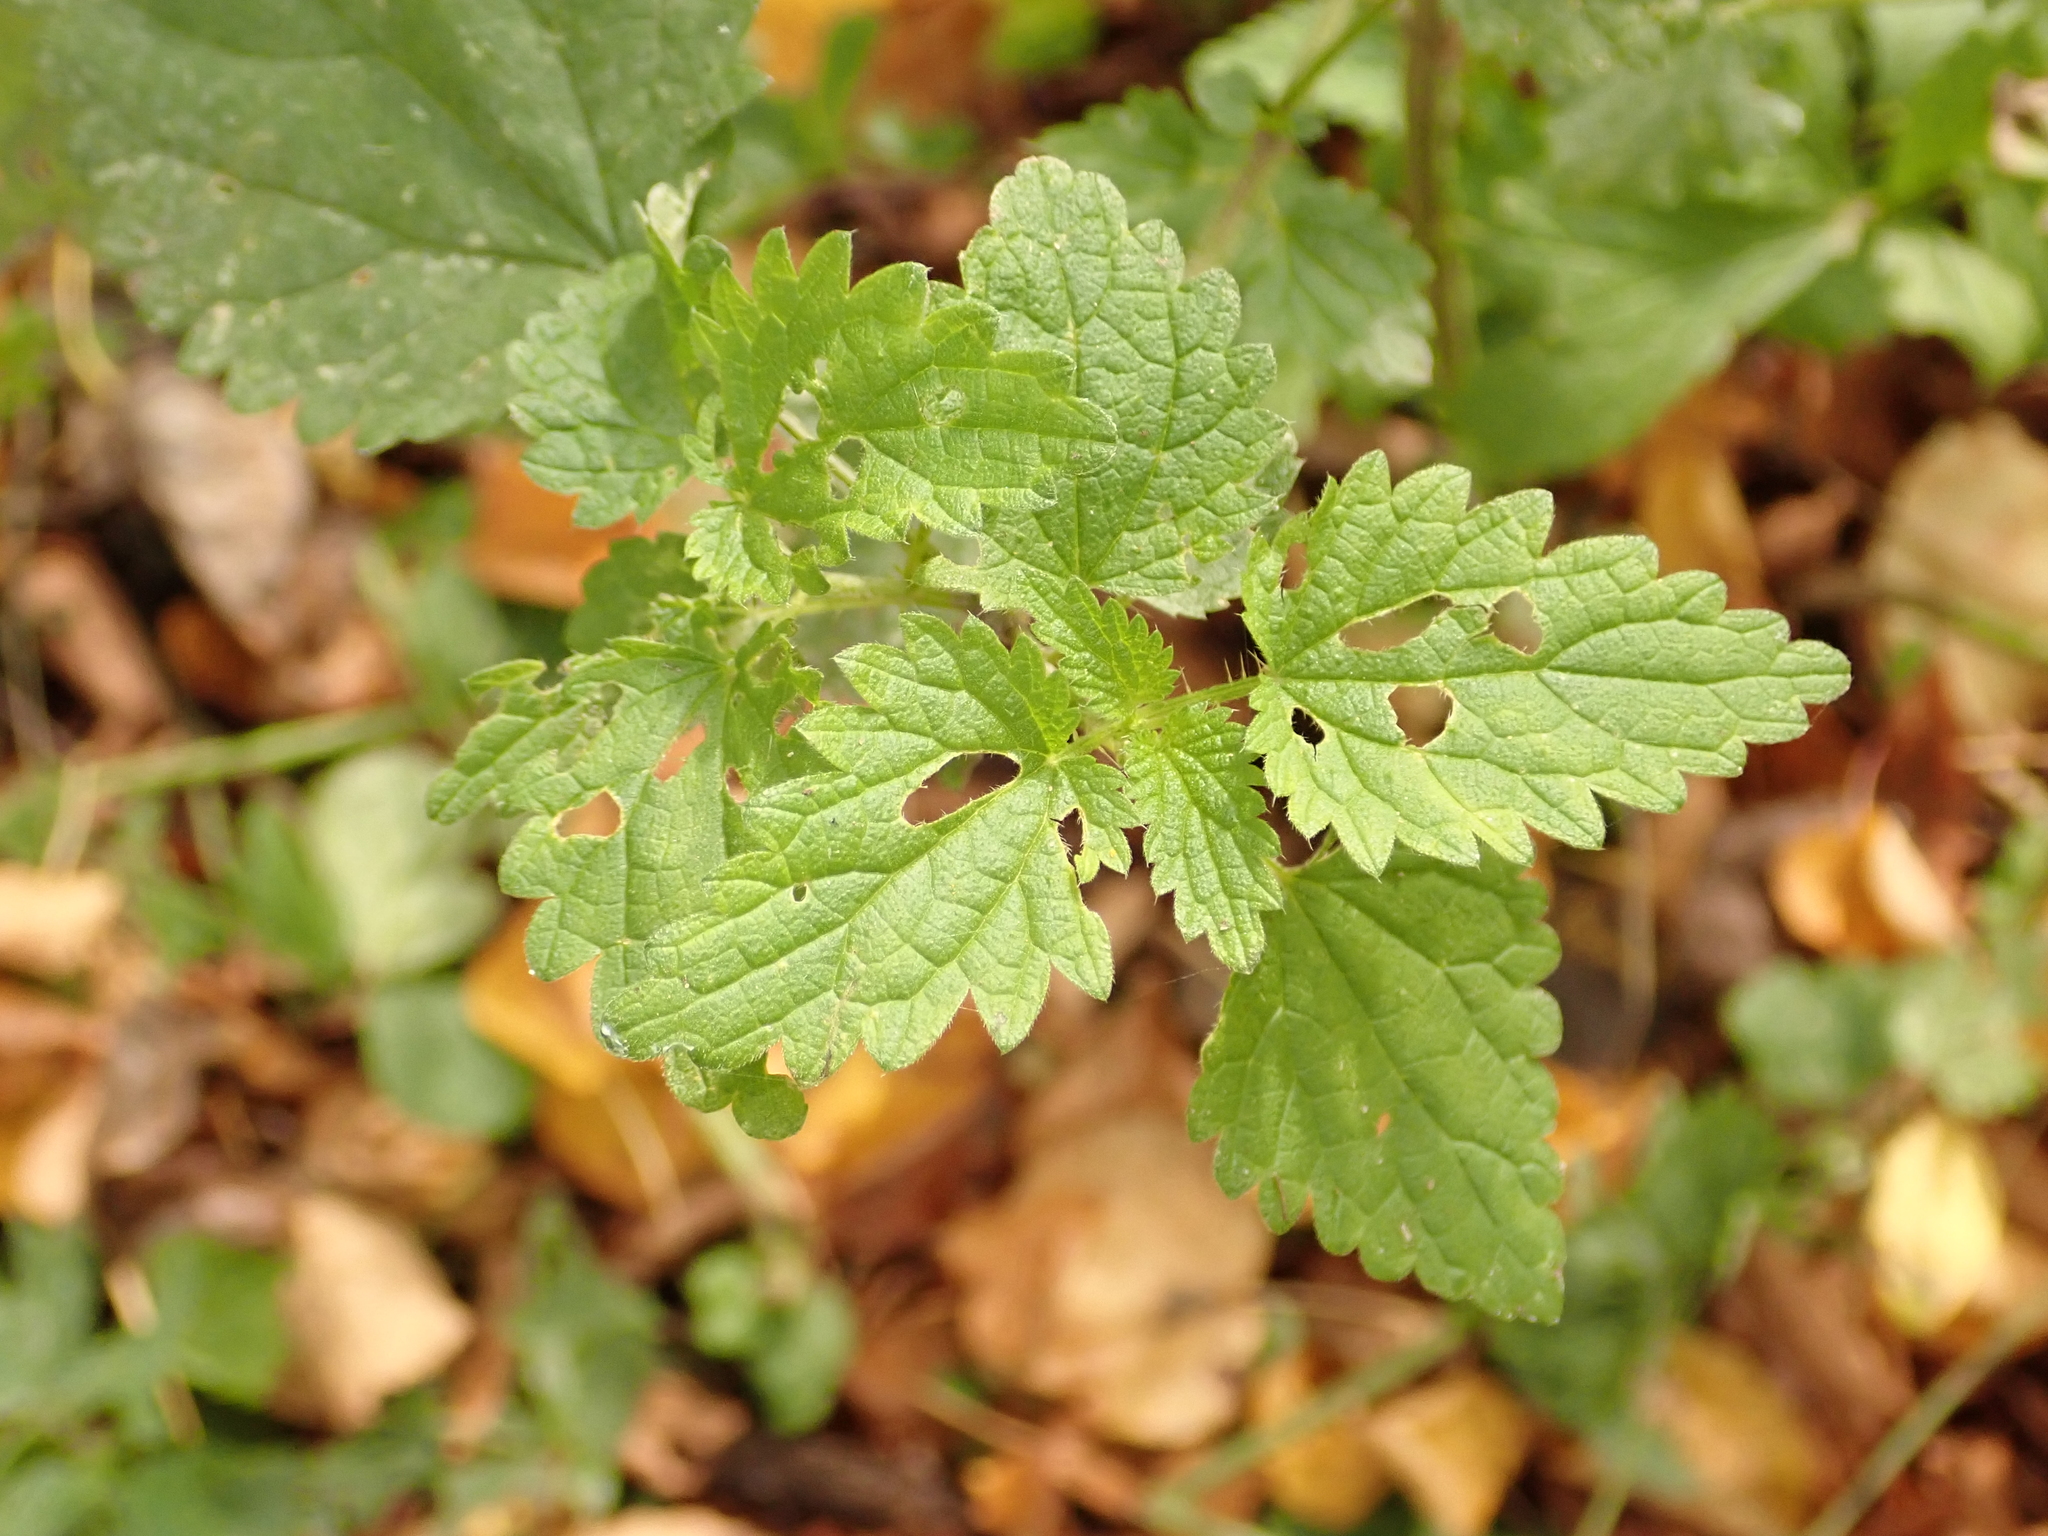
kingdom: Plantae
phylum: Tracheophyta
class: Magnoliopsida
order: Rosales
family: Urticaceae
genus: Urtica
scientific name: Urtica dioica
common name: Common nettle
